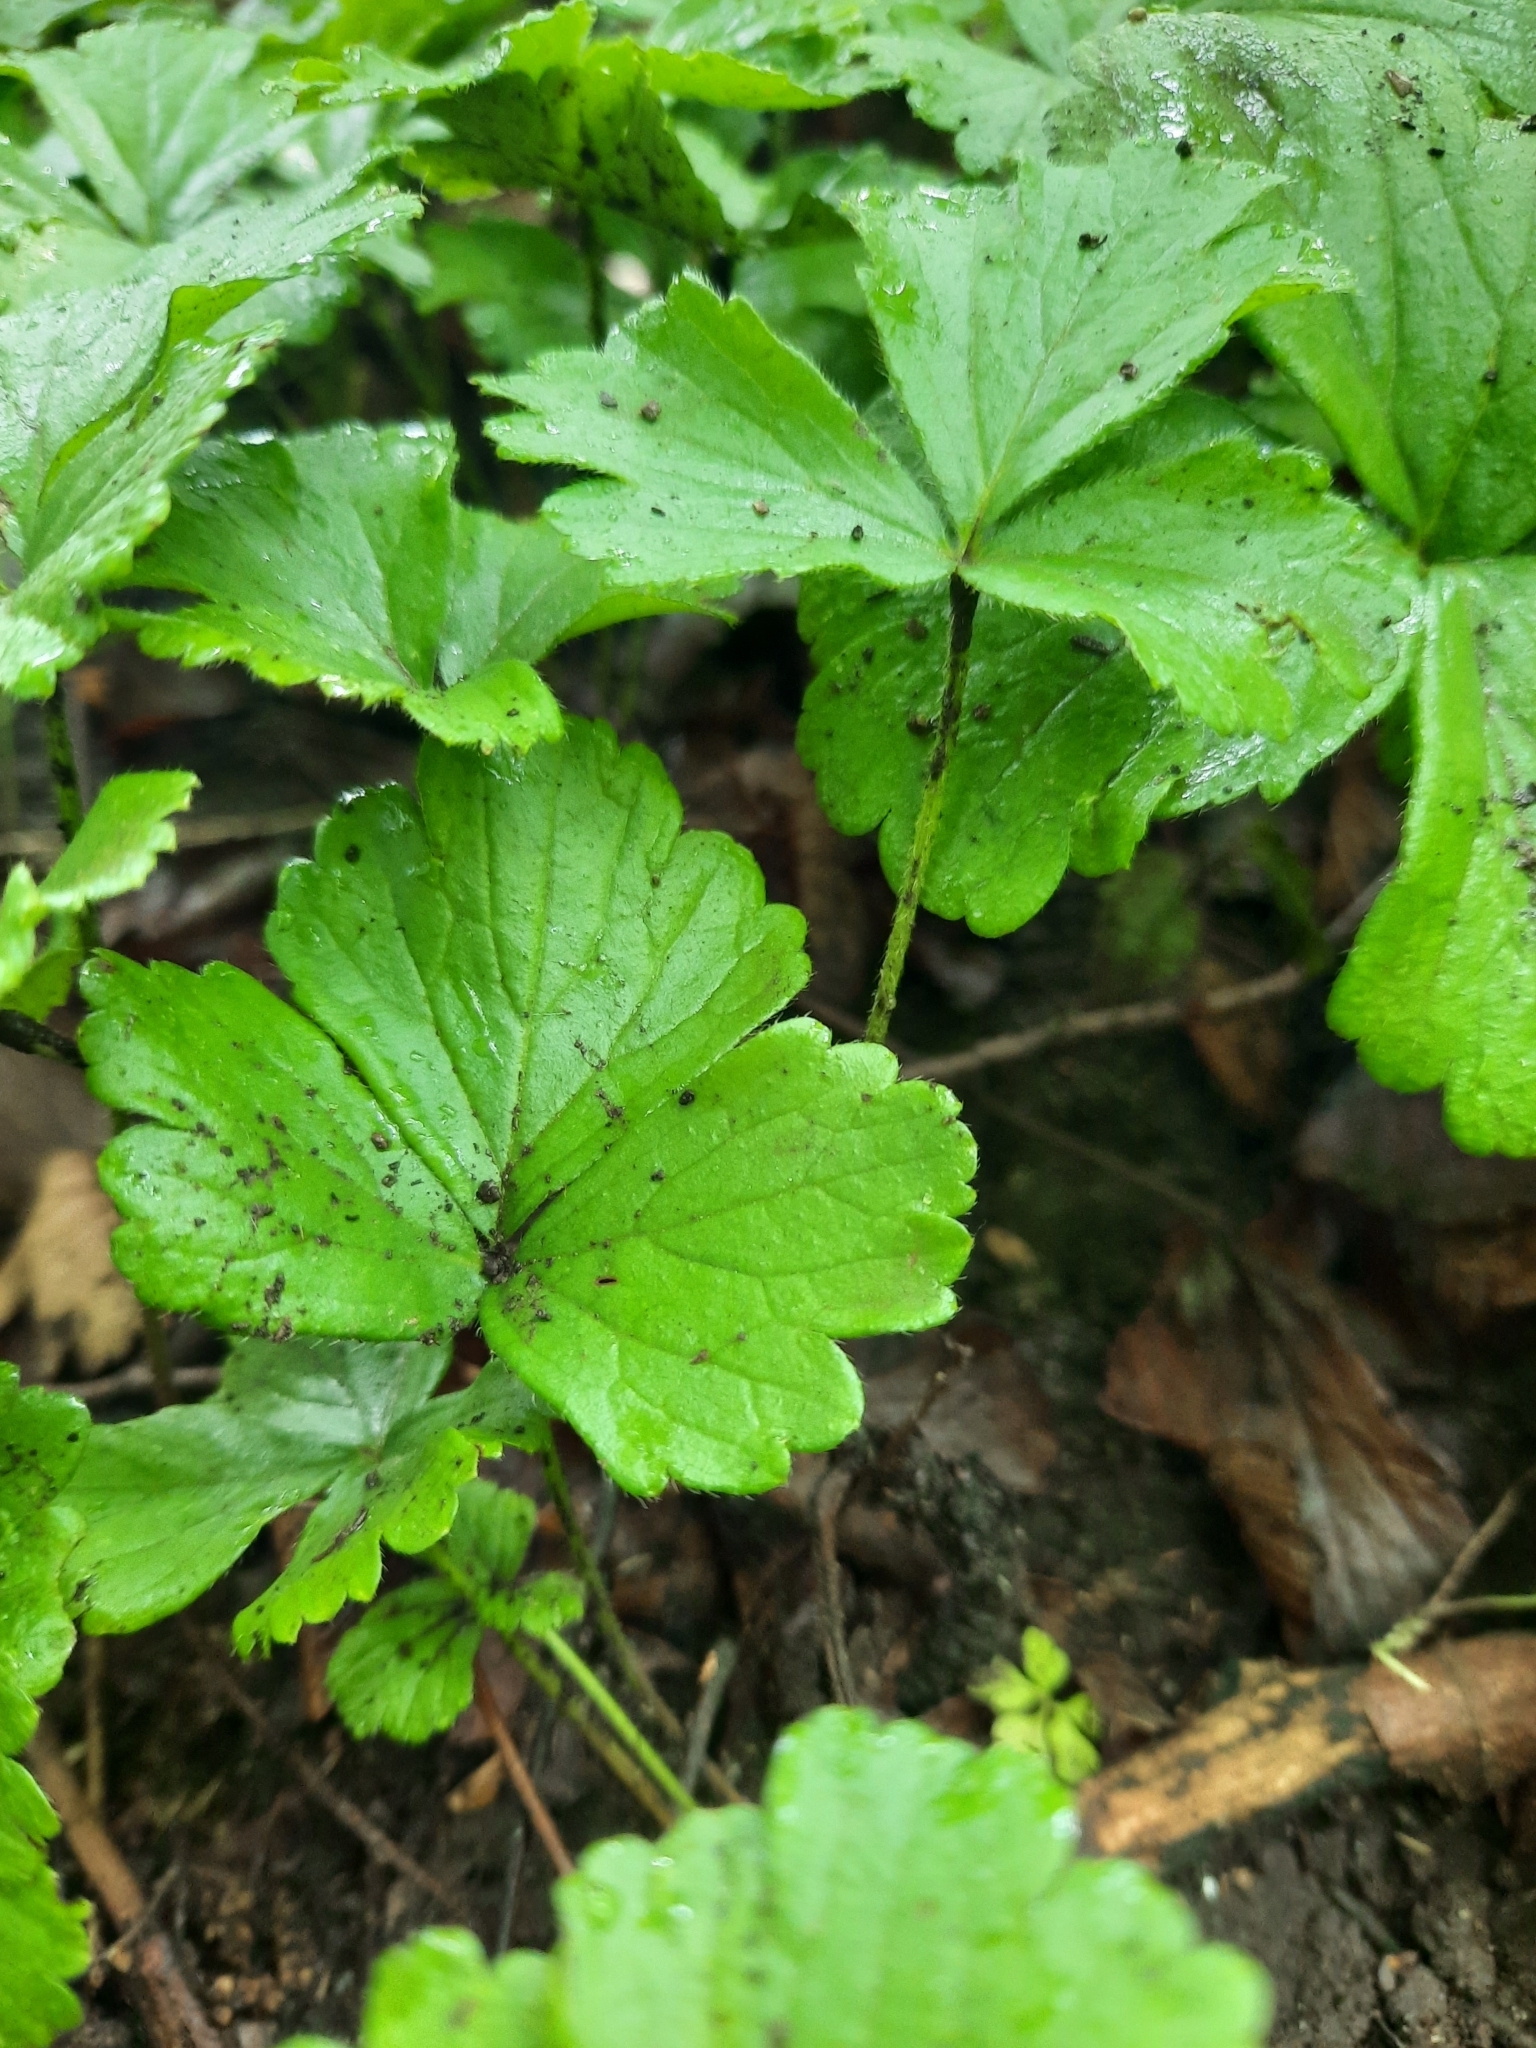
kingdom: Plantae
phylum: Tracheophyta
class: Magnoliopsida
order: Rosales
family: Rosaceae
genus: Geum
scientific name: Geum fragarioides
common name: Appalachian barren strawberry
